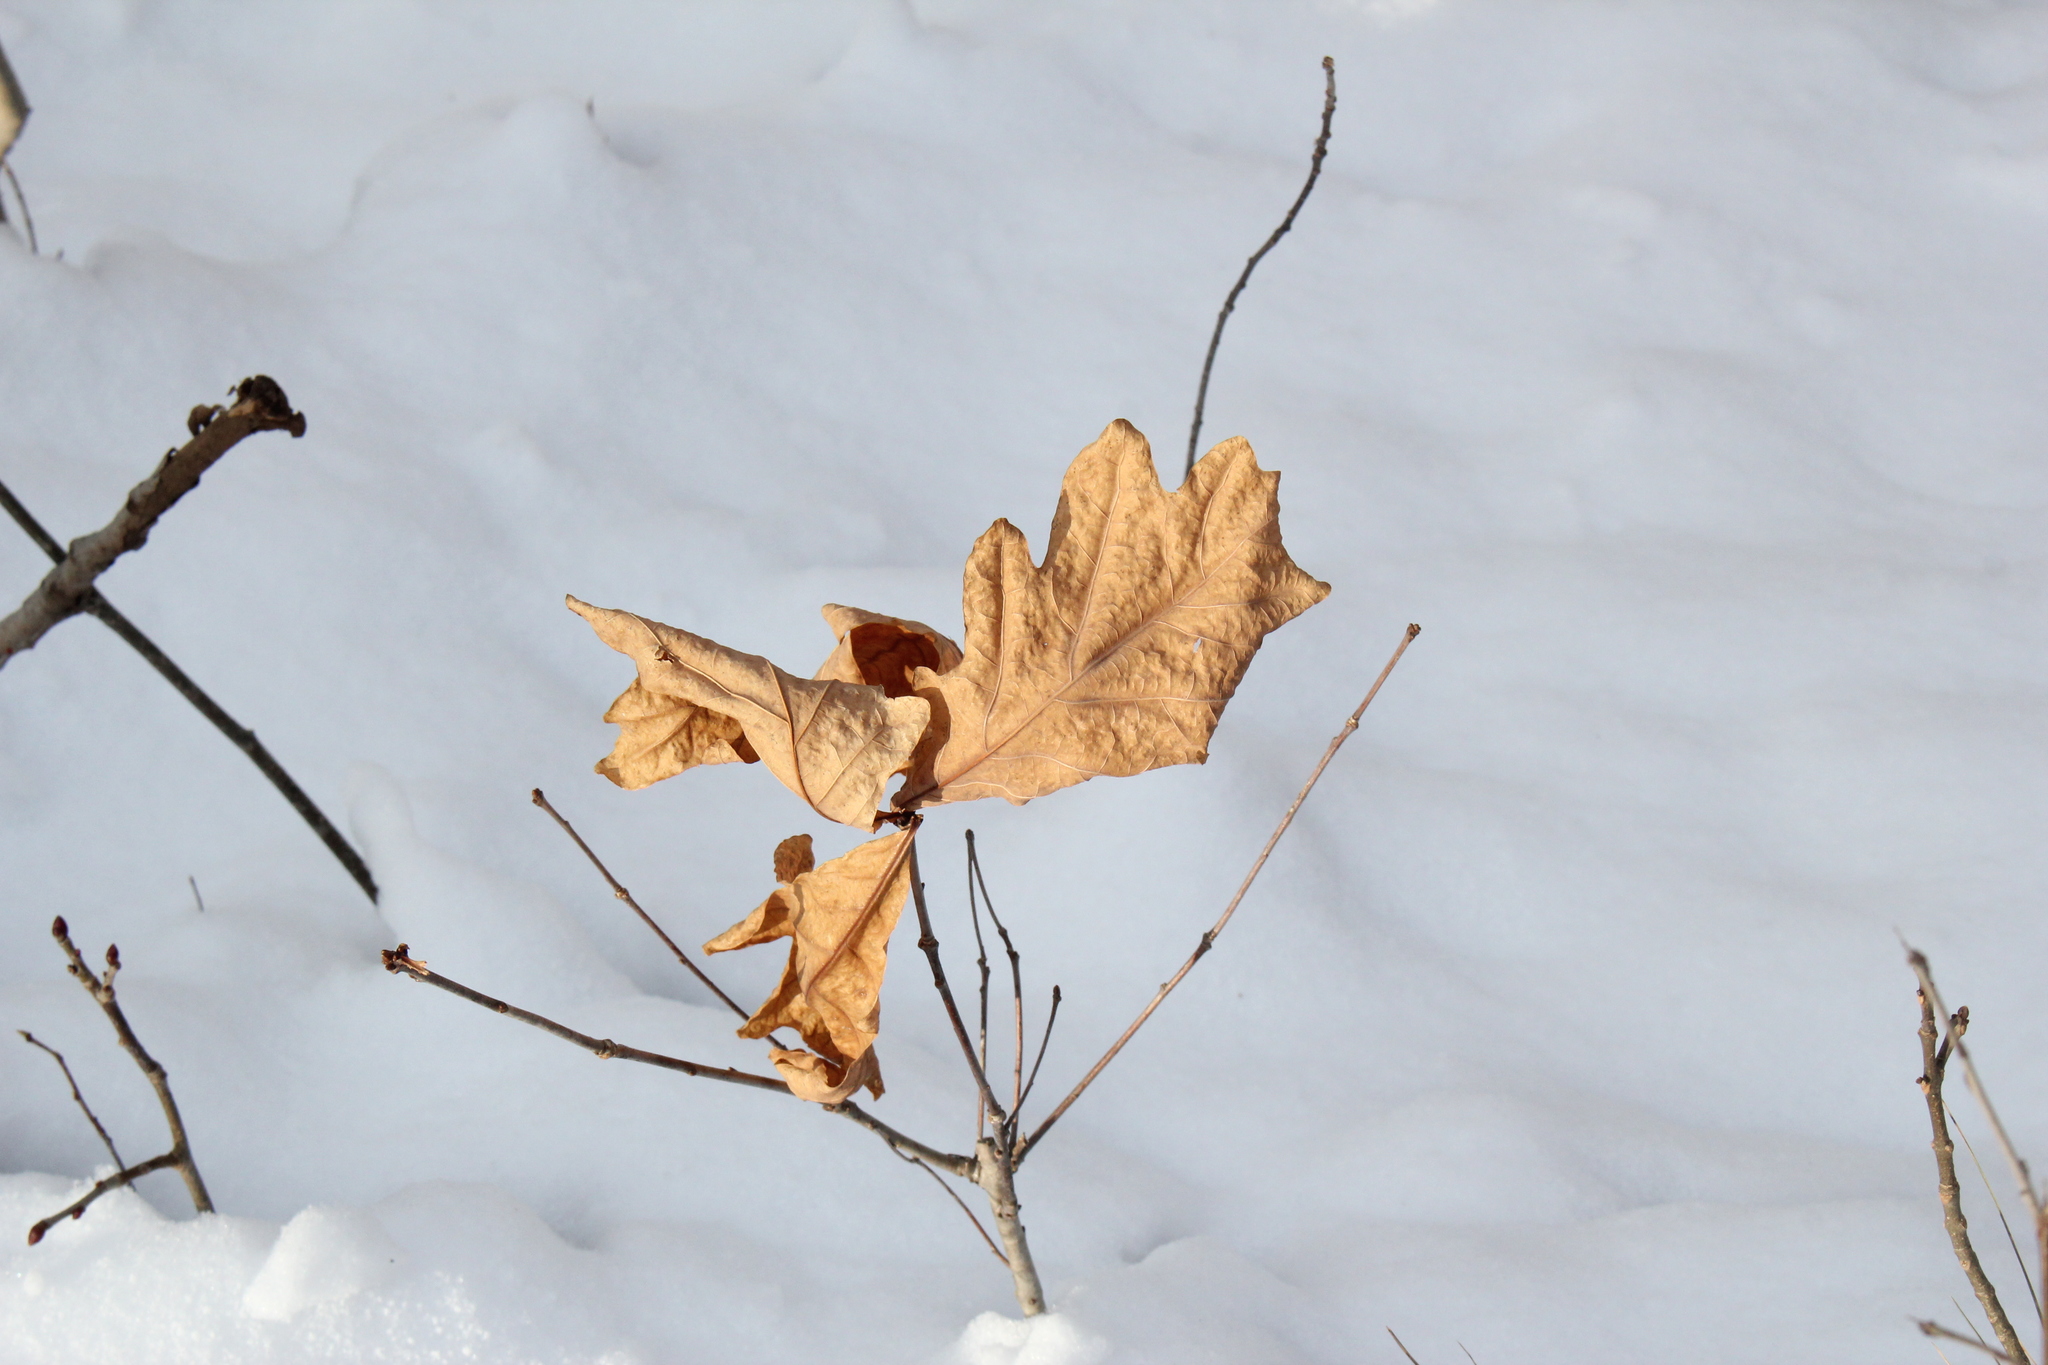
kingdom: Plantae
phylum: Tracheophyta
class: Magnoliopsida
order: Fagales
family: Fagaceae
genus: Quercus
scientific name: Quercus alba
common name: White oak
